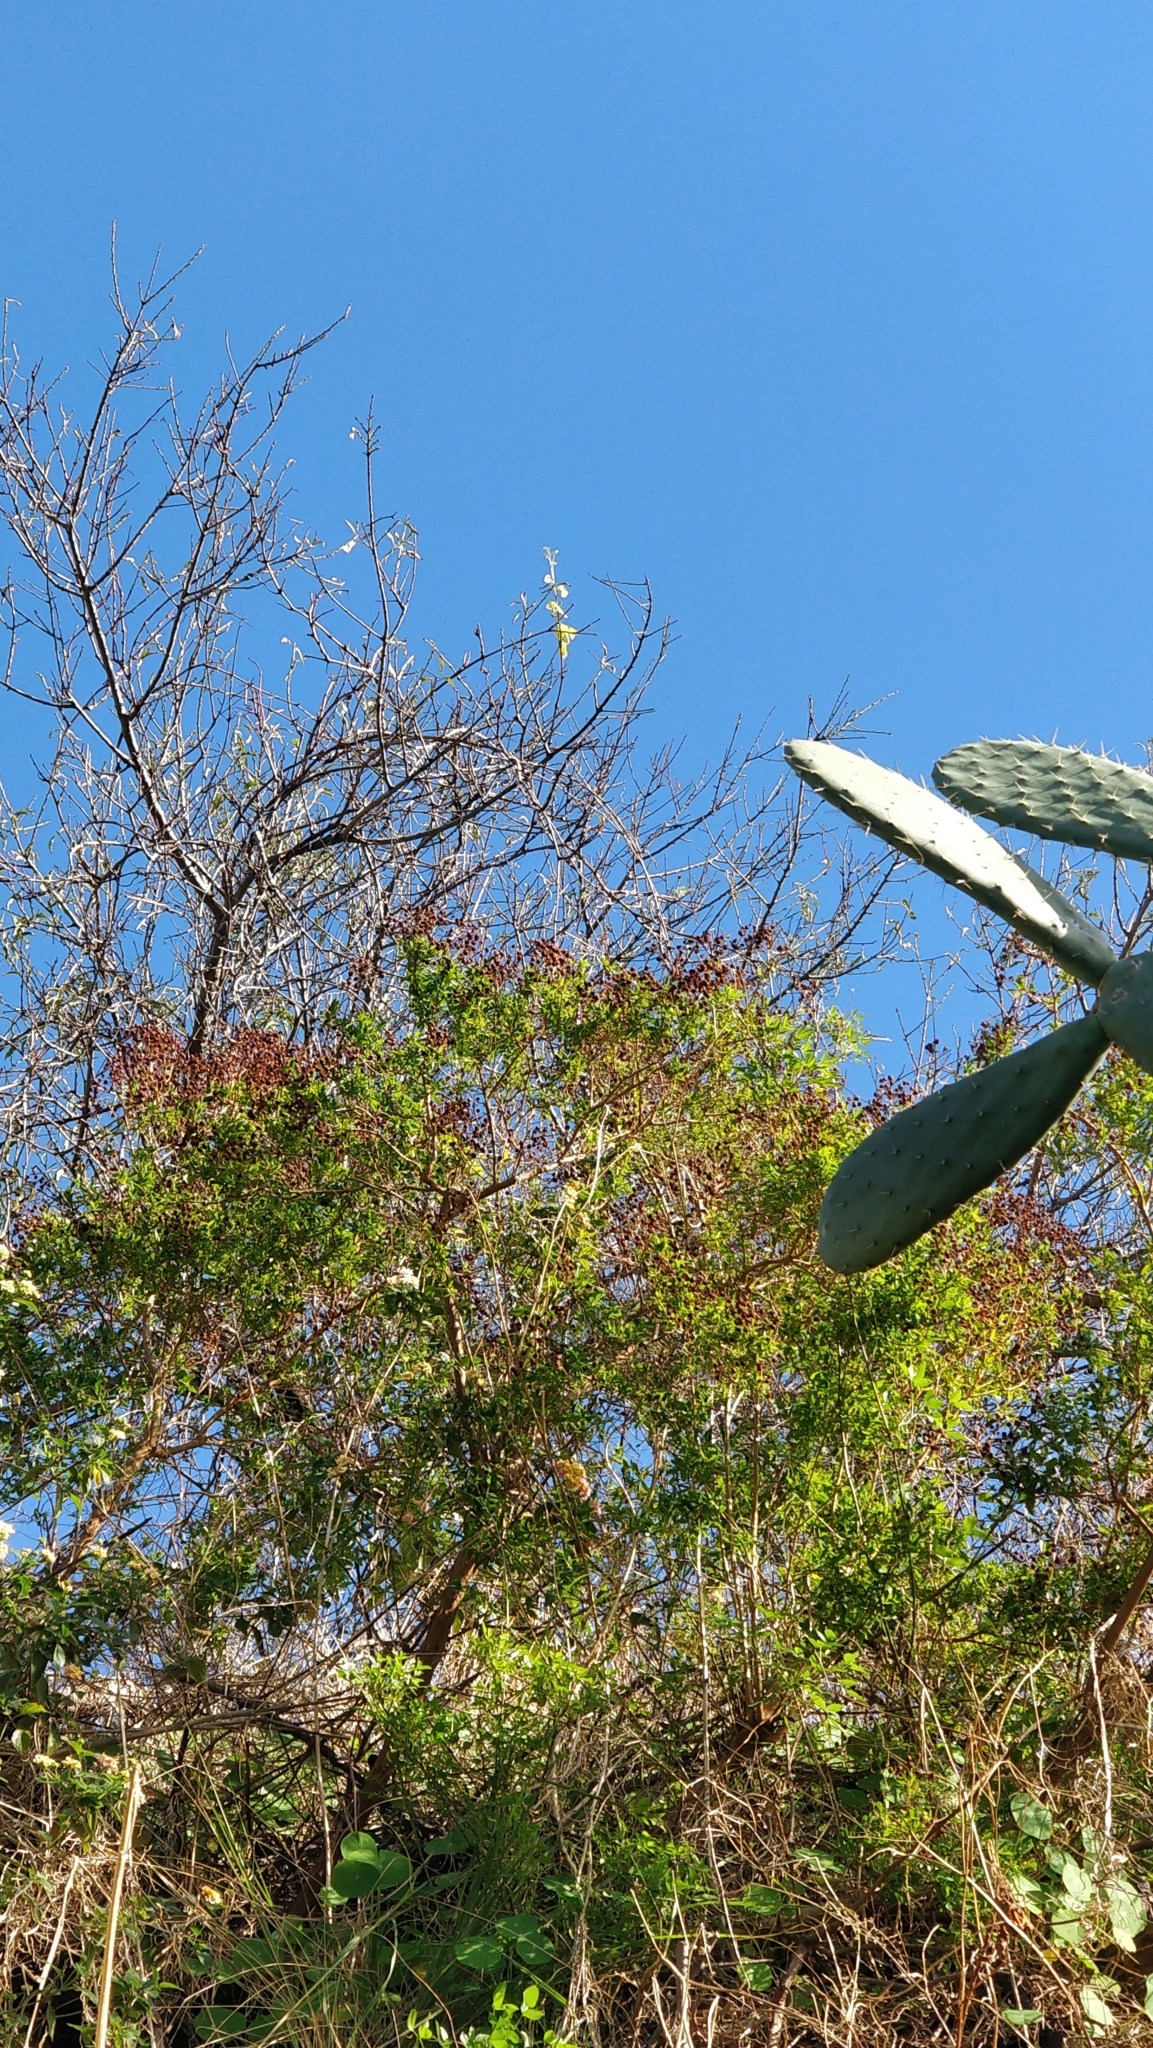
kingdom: Plantae
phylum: Tracheophyta
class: Magnoliopsida
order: Malpighiales
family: Hypericaceae
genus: Hypericum
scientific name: Hypericum canariense
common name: Canary island st. johnswort
